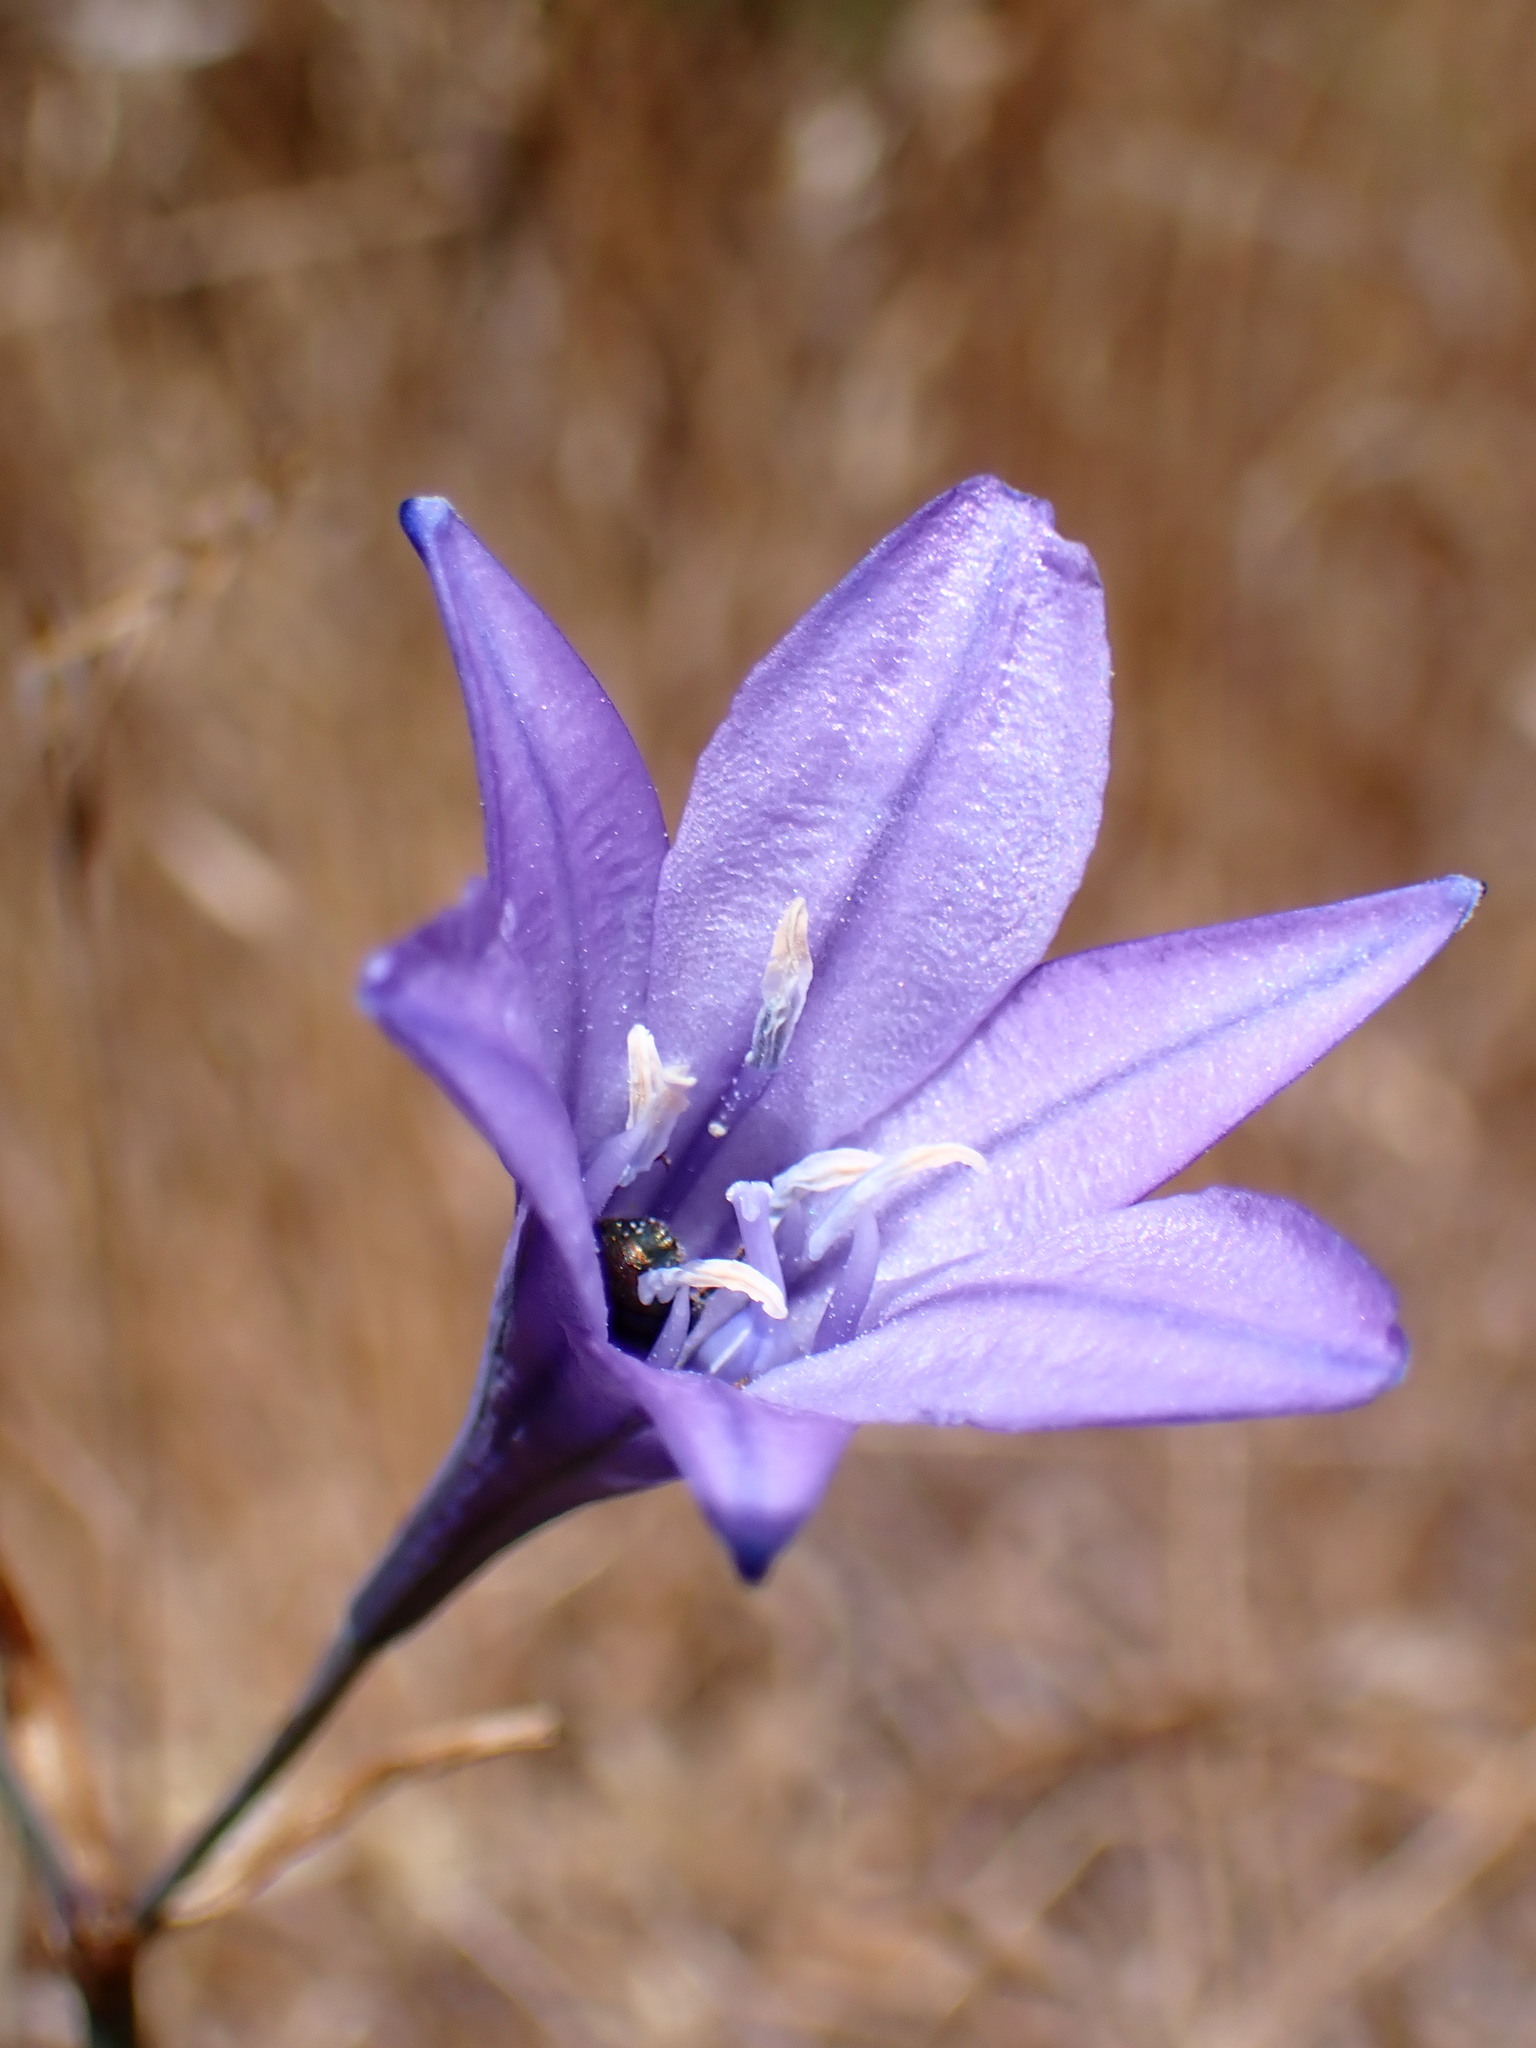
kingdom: Plantae
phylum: Tracheophyta
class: Liliopsida
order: Asparagales
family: Asparagaceae
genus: Triteleia
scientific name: Triteleia laxa
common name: Triplet-lily
